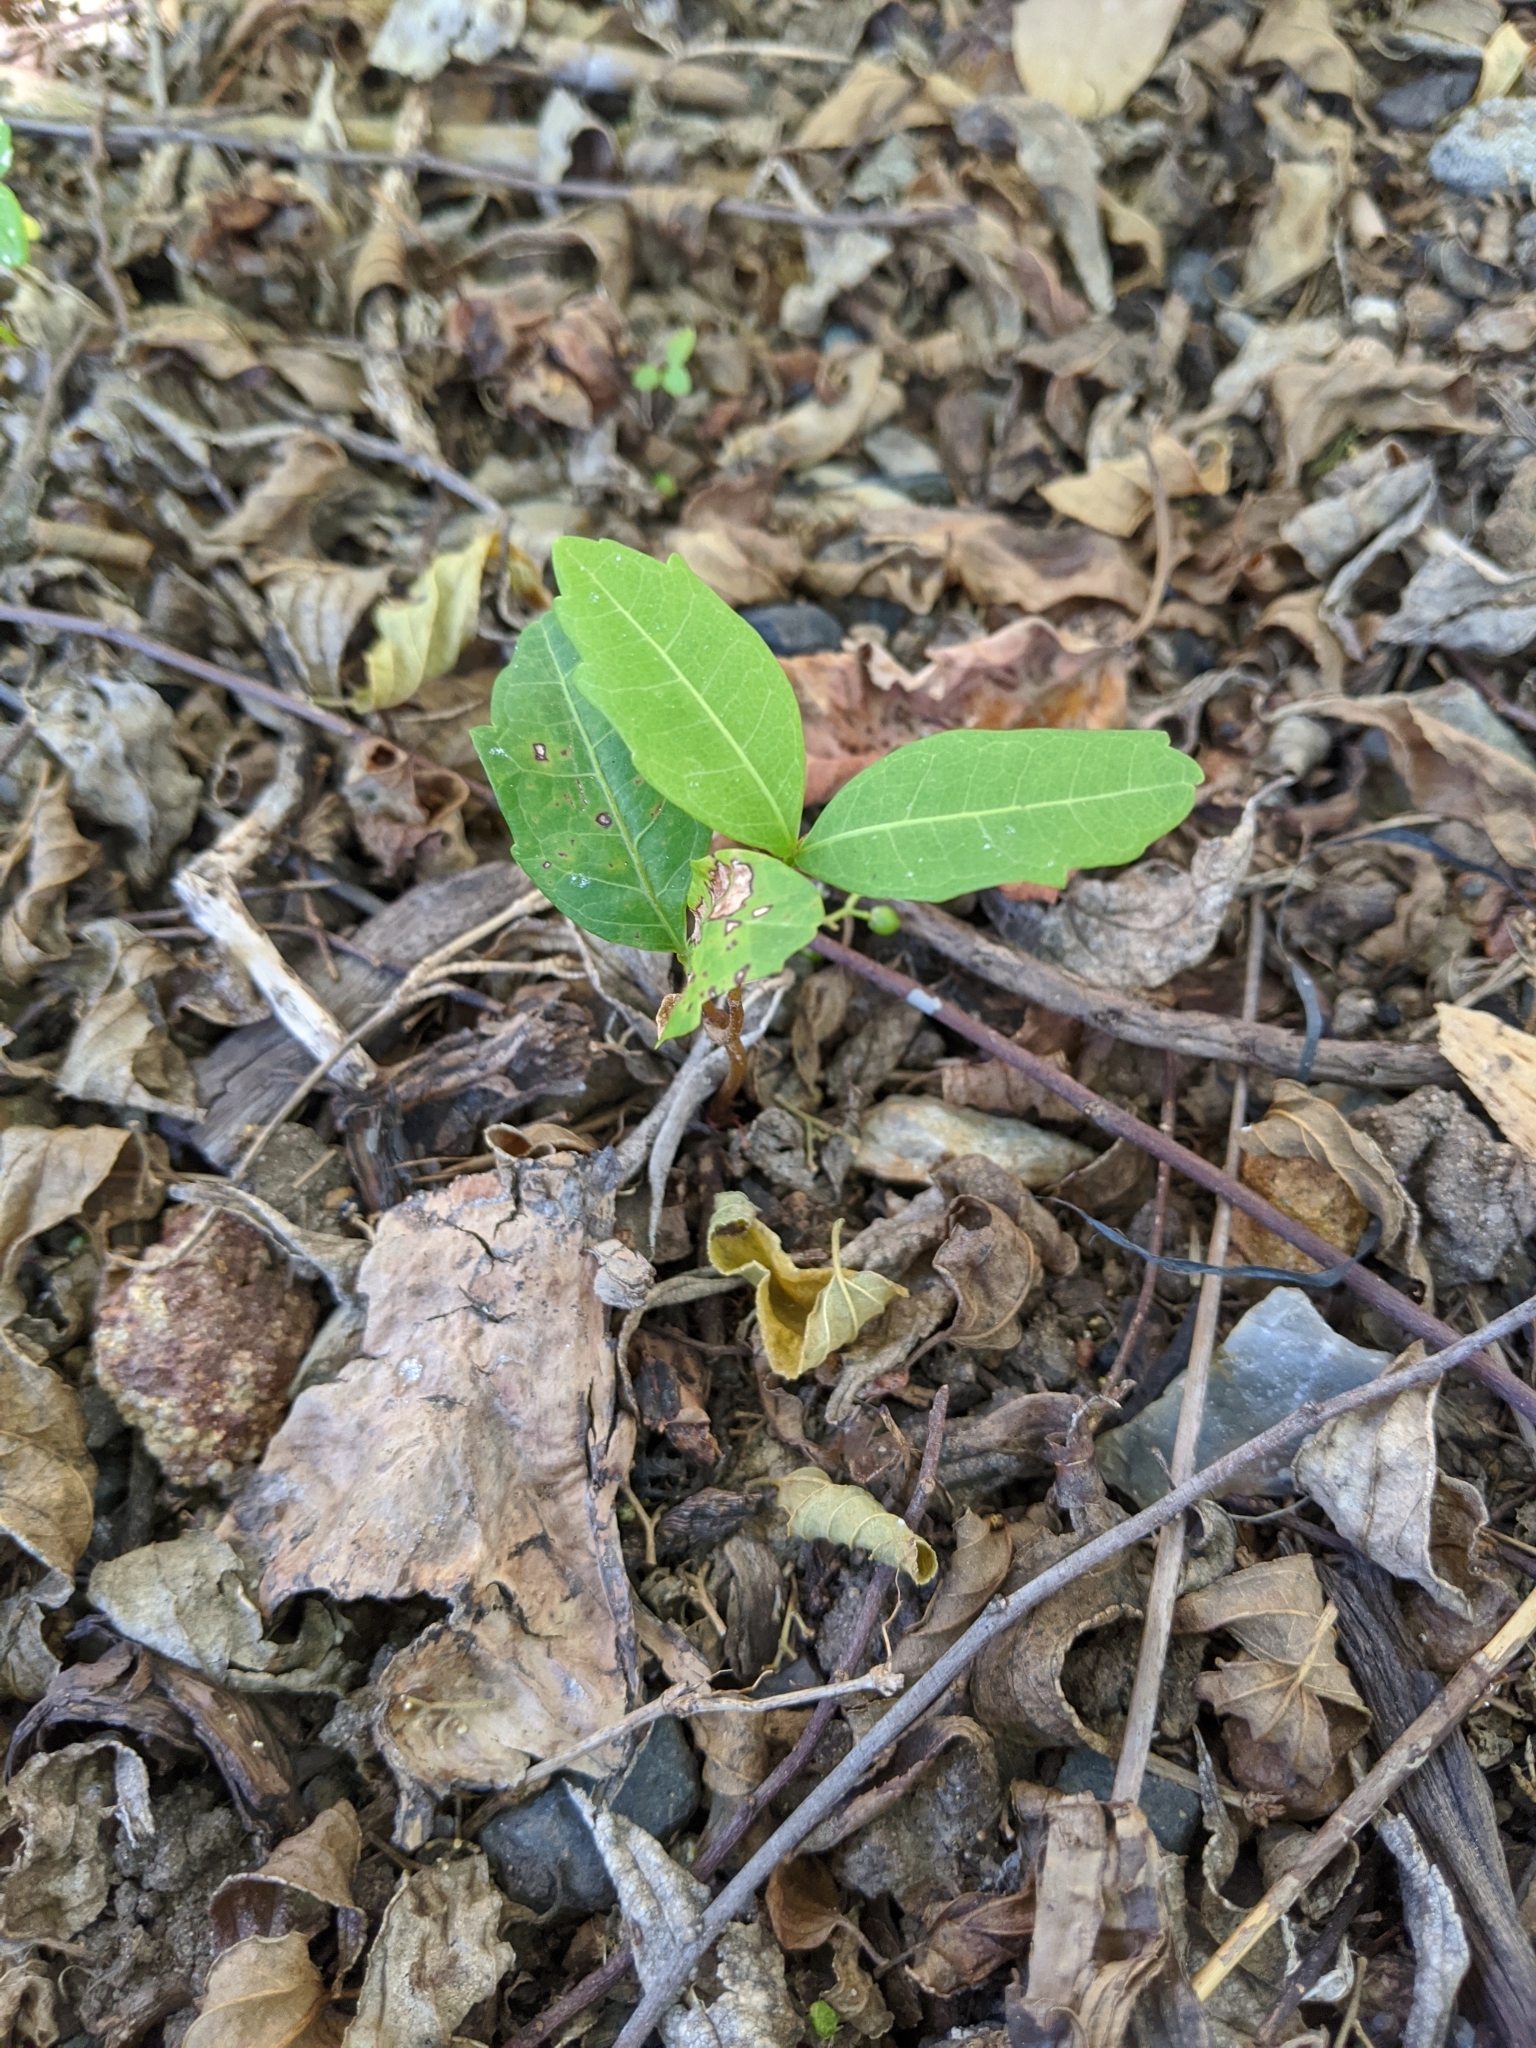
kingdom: Plantae
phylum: Tracheophyta
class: Magnoliopsida
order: Sapindales
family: Sapindaceae
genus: Cupaniopsis
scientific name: Cupaniopsis anacardioides
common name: Carrotwood
